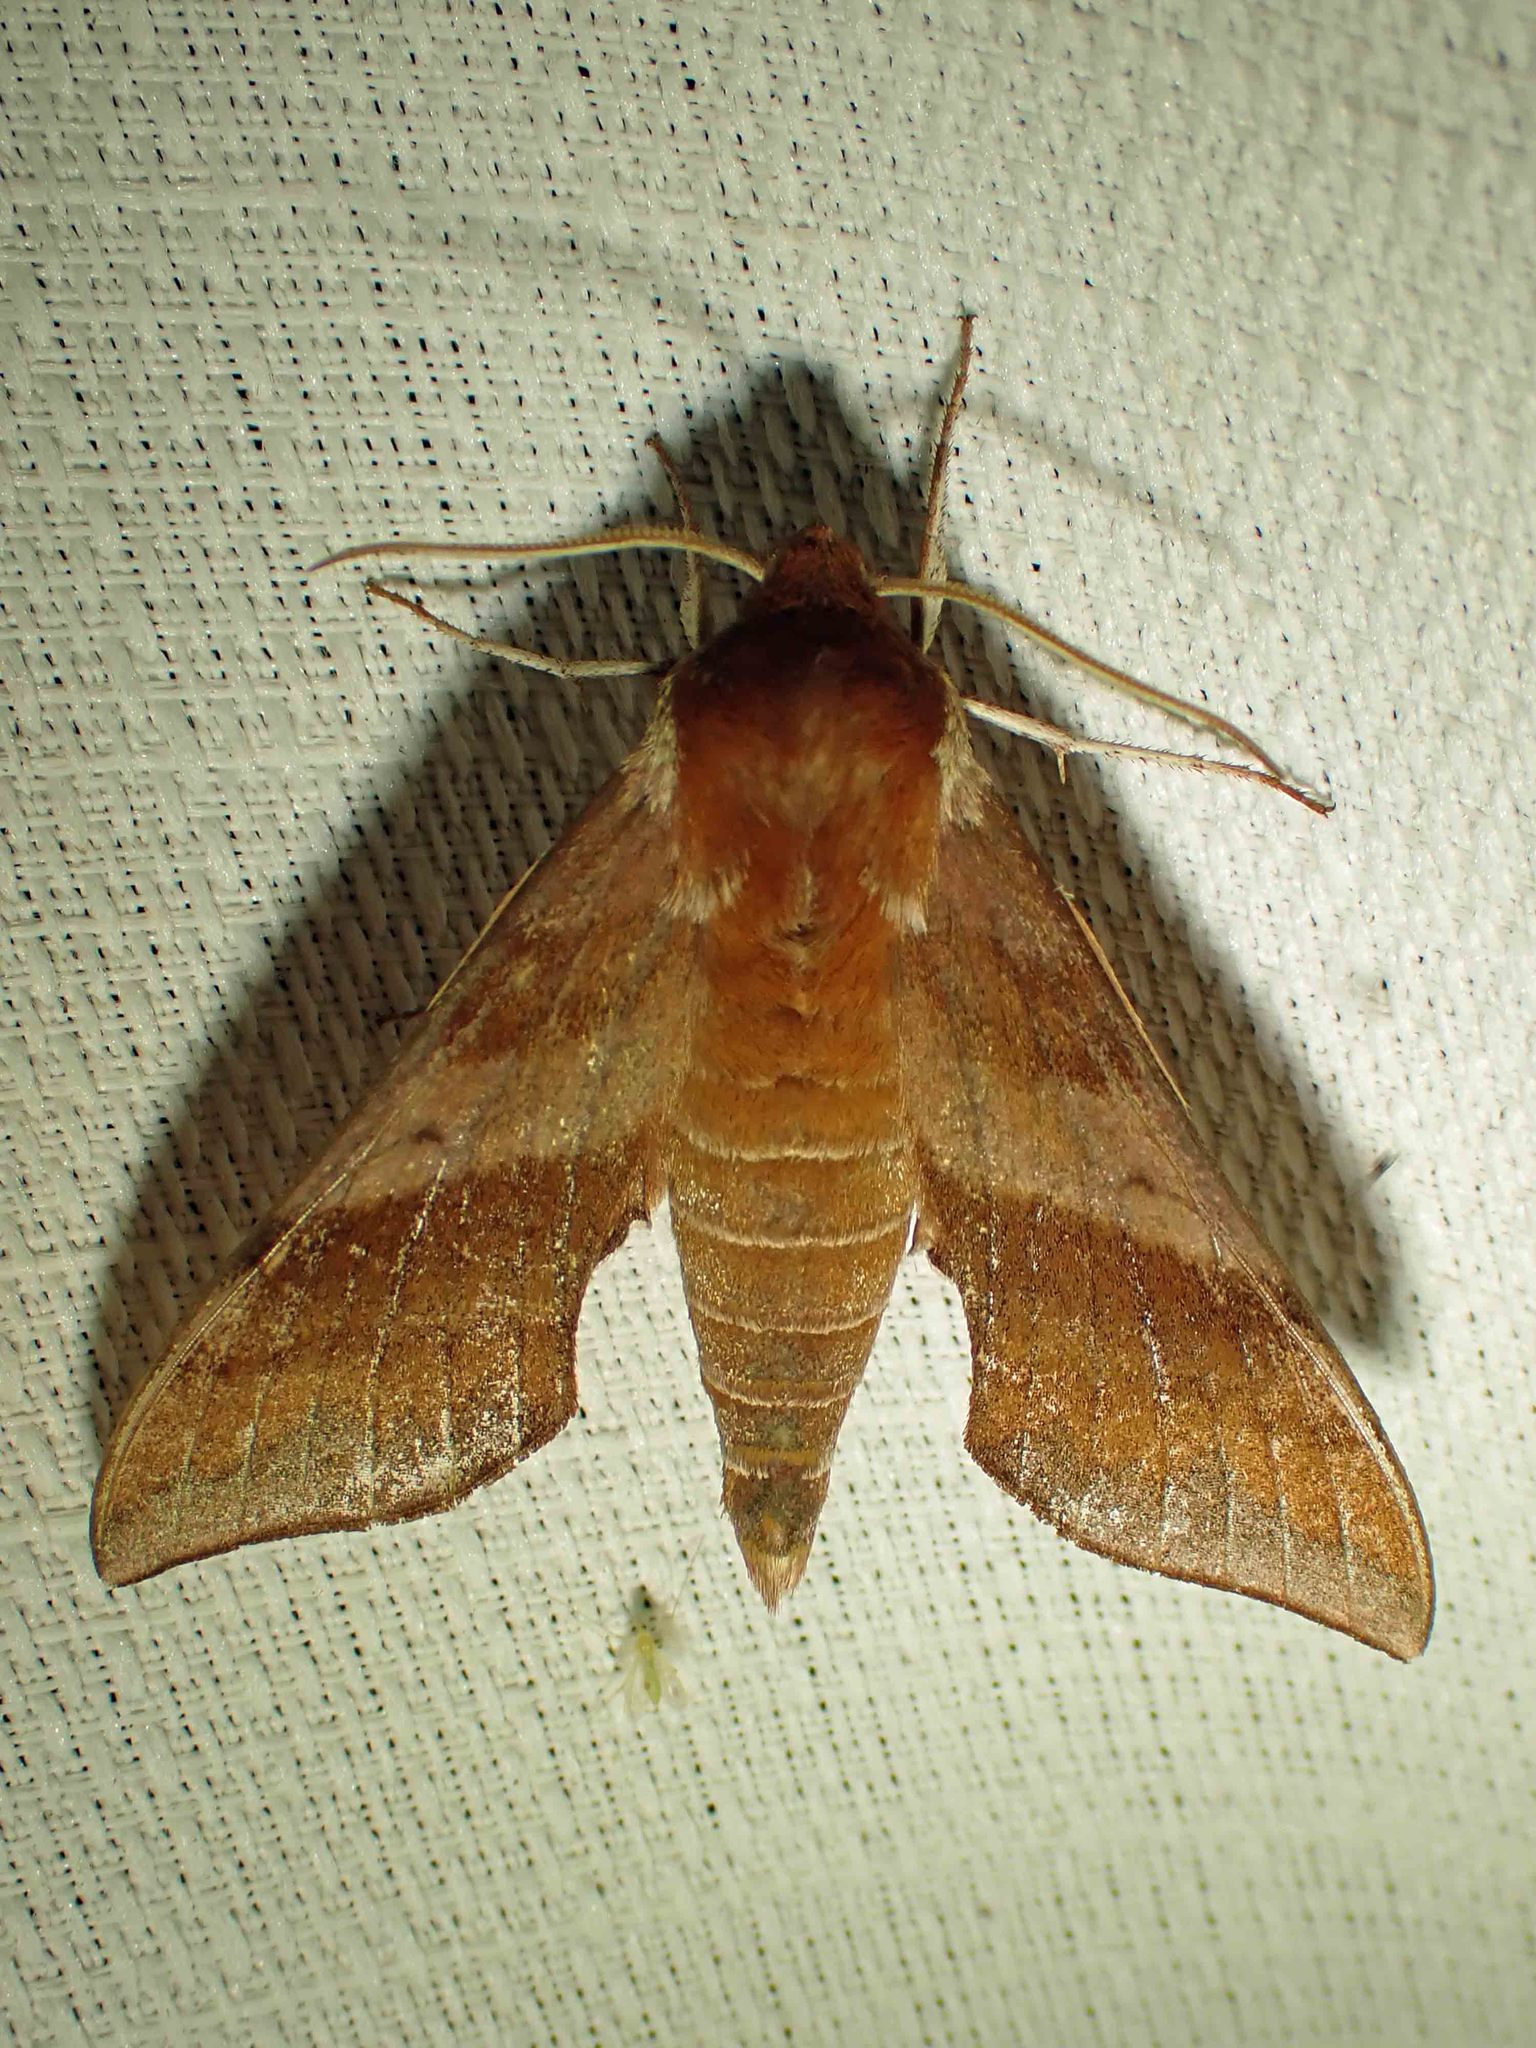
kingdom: Animalia
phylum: Arthropoda
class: Insecta
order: Lepidoptera
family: Sphingidae
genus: Darapsa
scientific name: Darapsa choerilus
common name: Azalea sphinx
